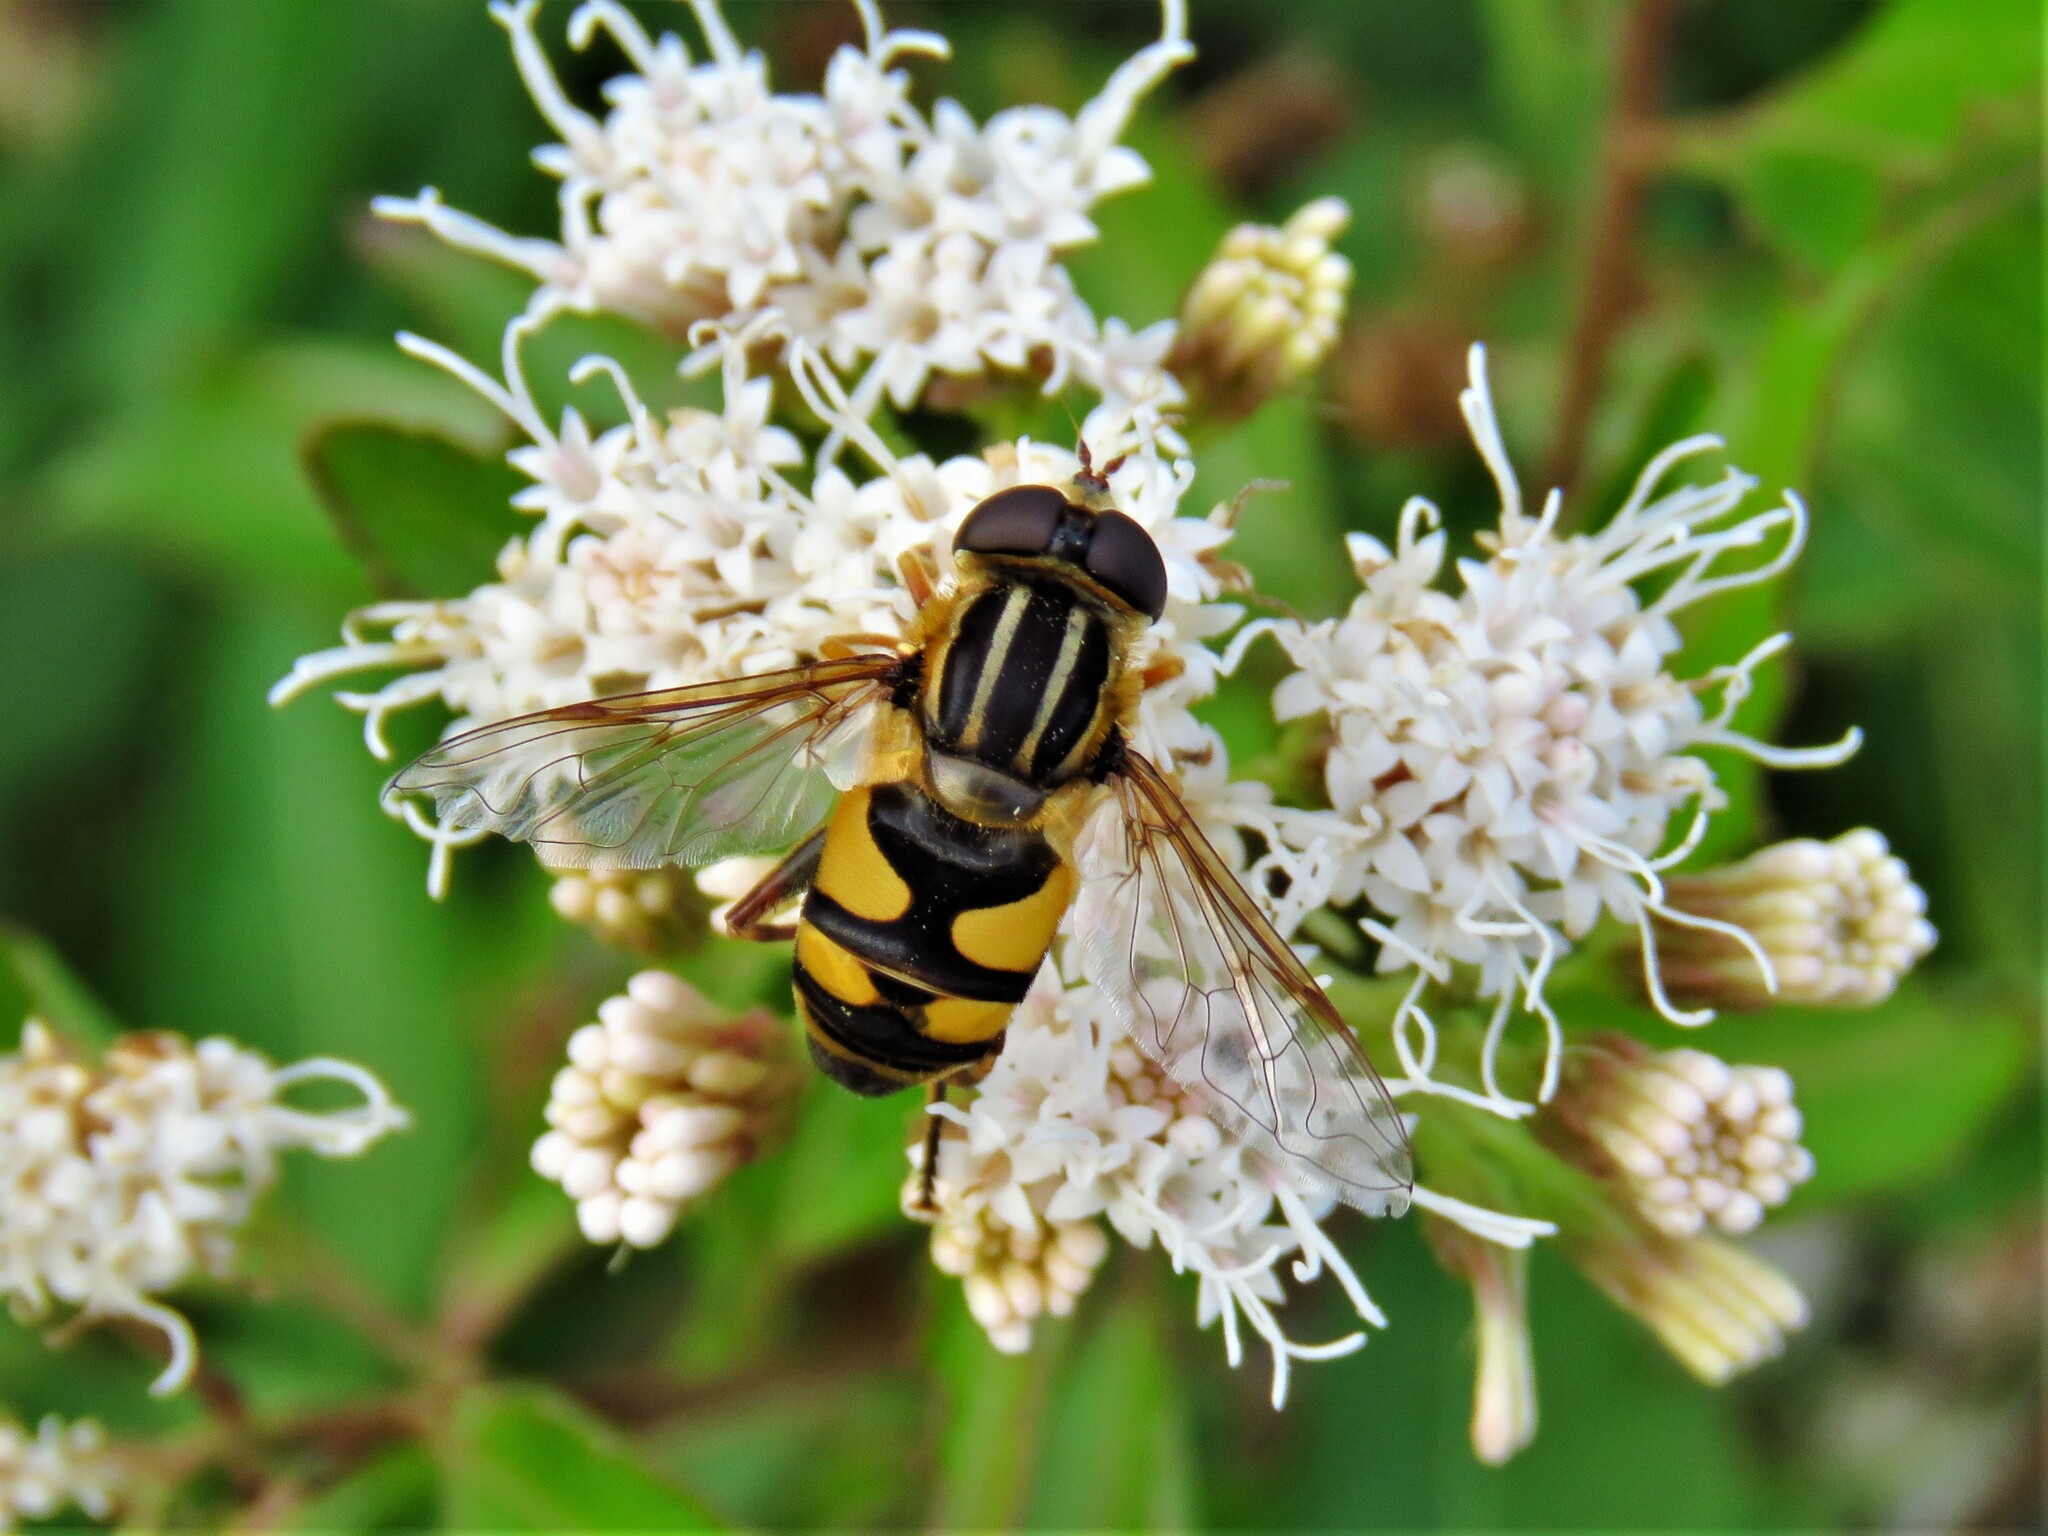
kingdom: Animalia
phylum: Arthropoda
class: Insecta
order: Diptera
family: Syrphidae
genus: Helophilus
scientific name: Helophilus fasciatus
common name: Narrow-headed marsh fly
